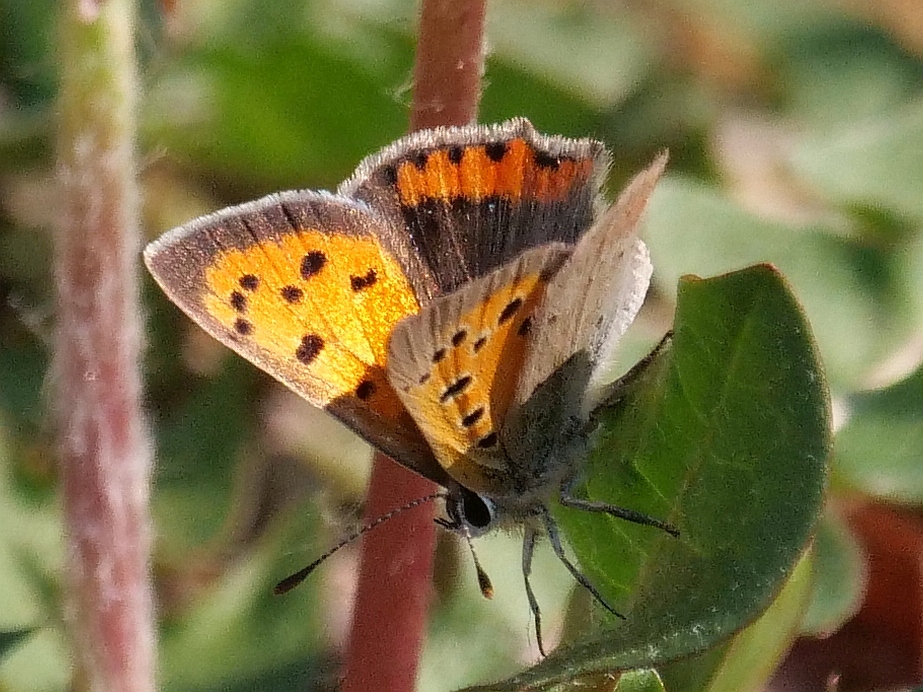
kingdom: Animalia
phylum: Arthropoda
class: Insecta
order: Lepidoptera
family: Lycaenidae
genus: Lycaena
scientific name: Lycaena phlaeas
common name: Small copper
